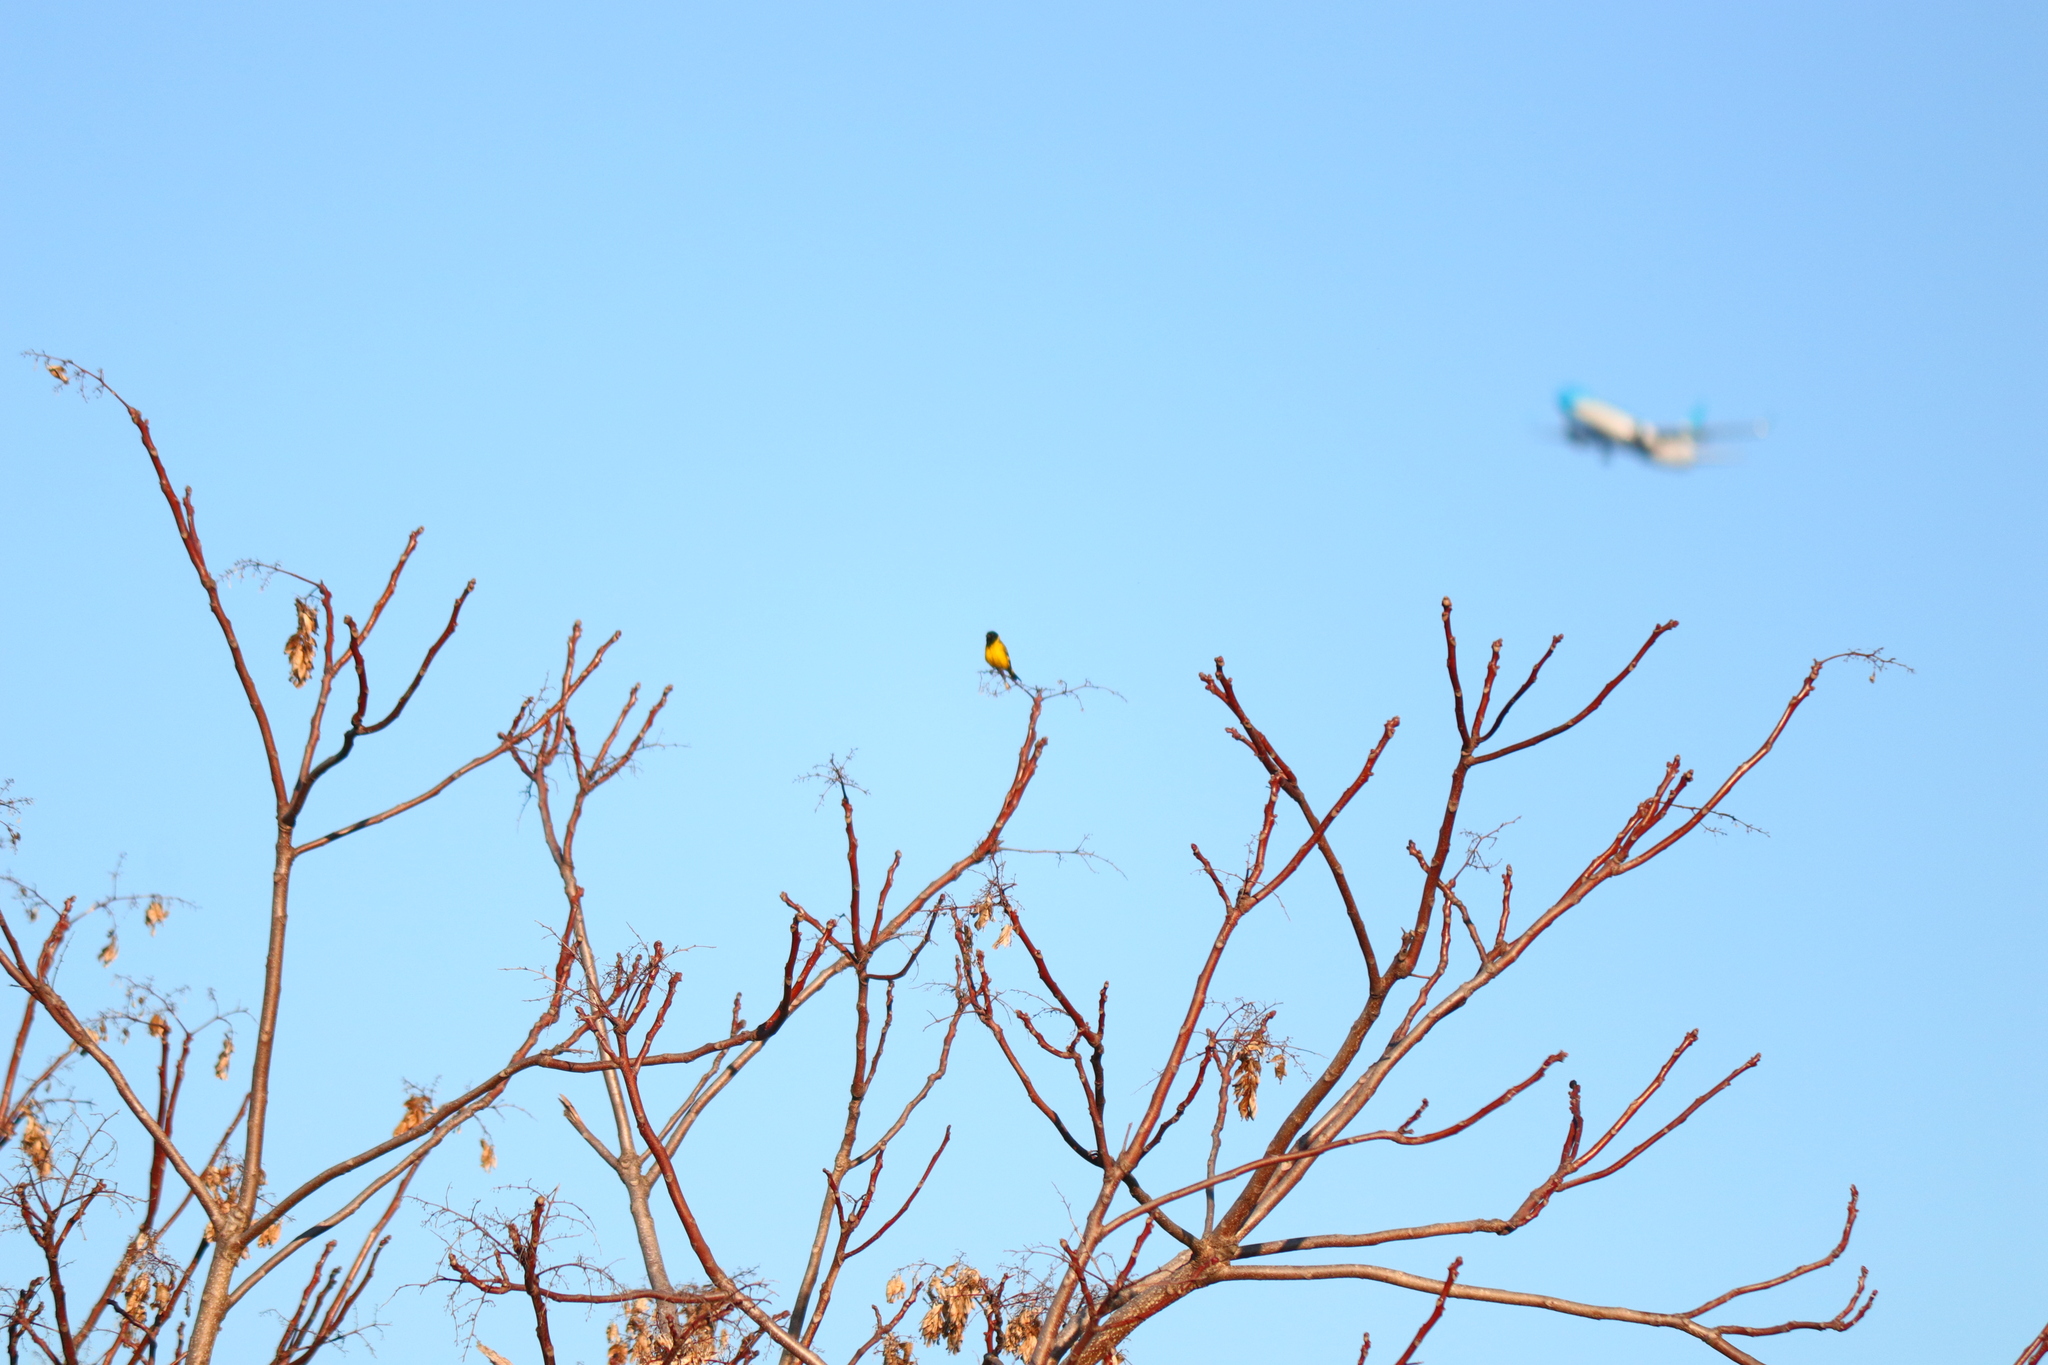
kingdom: Animalia
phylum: Chordata
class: Aves
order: Passeriformes
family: Fringillidae
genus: Spinus
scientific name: Spinus magellanicus
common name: Hooded siskin
